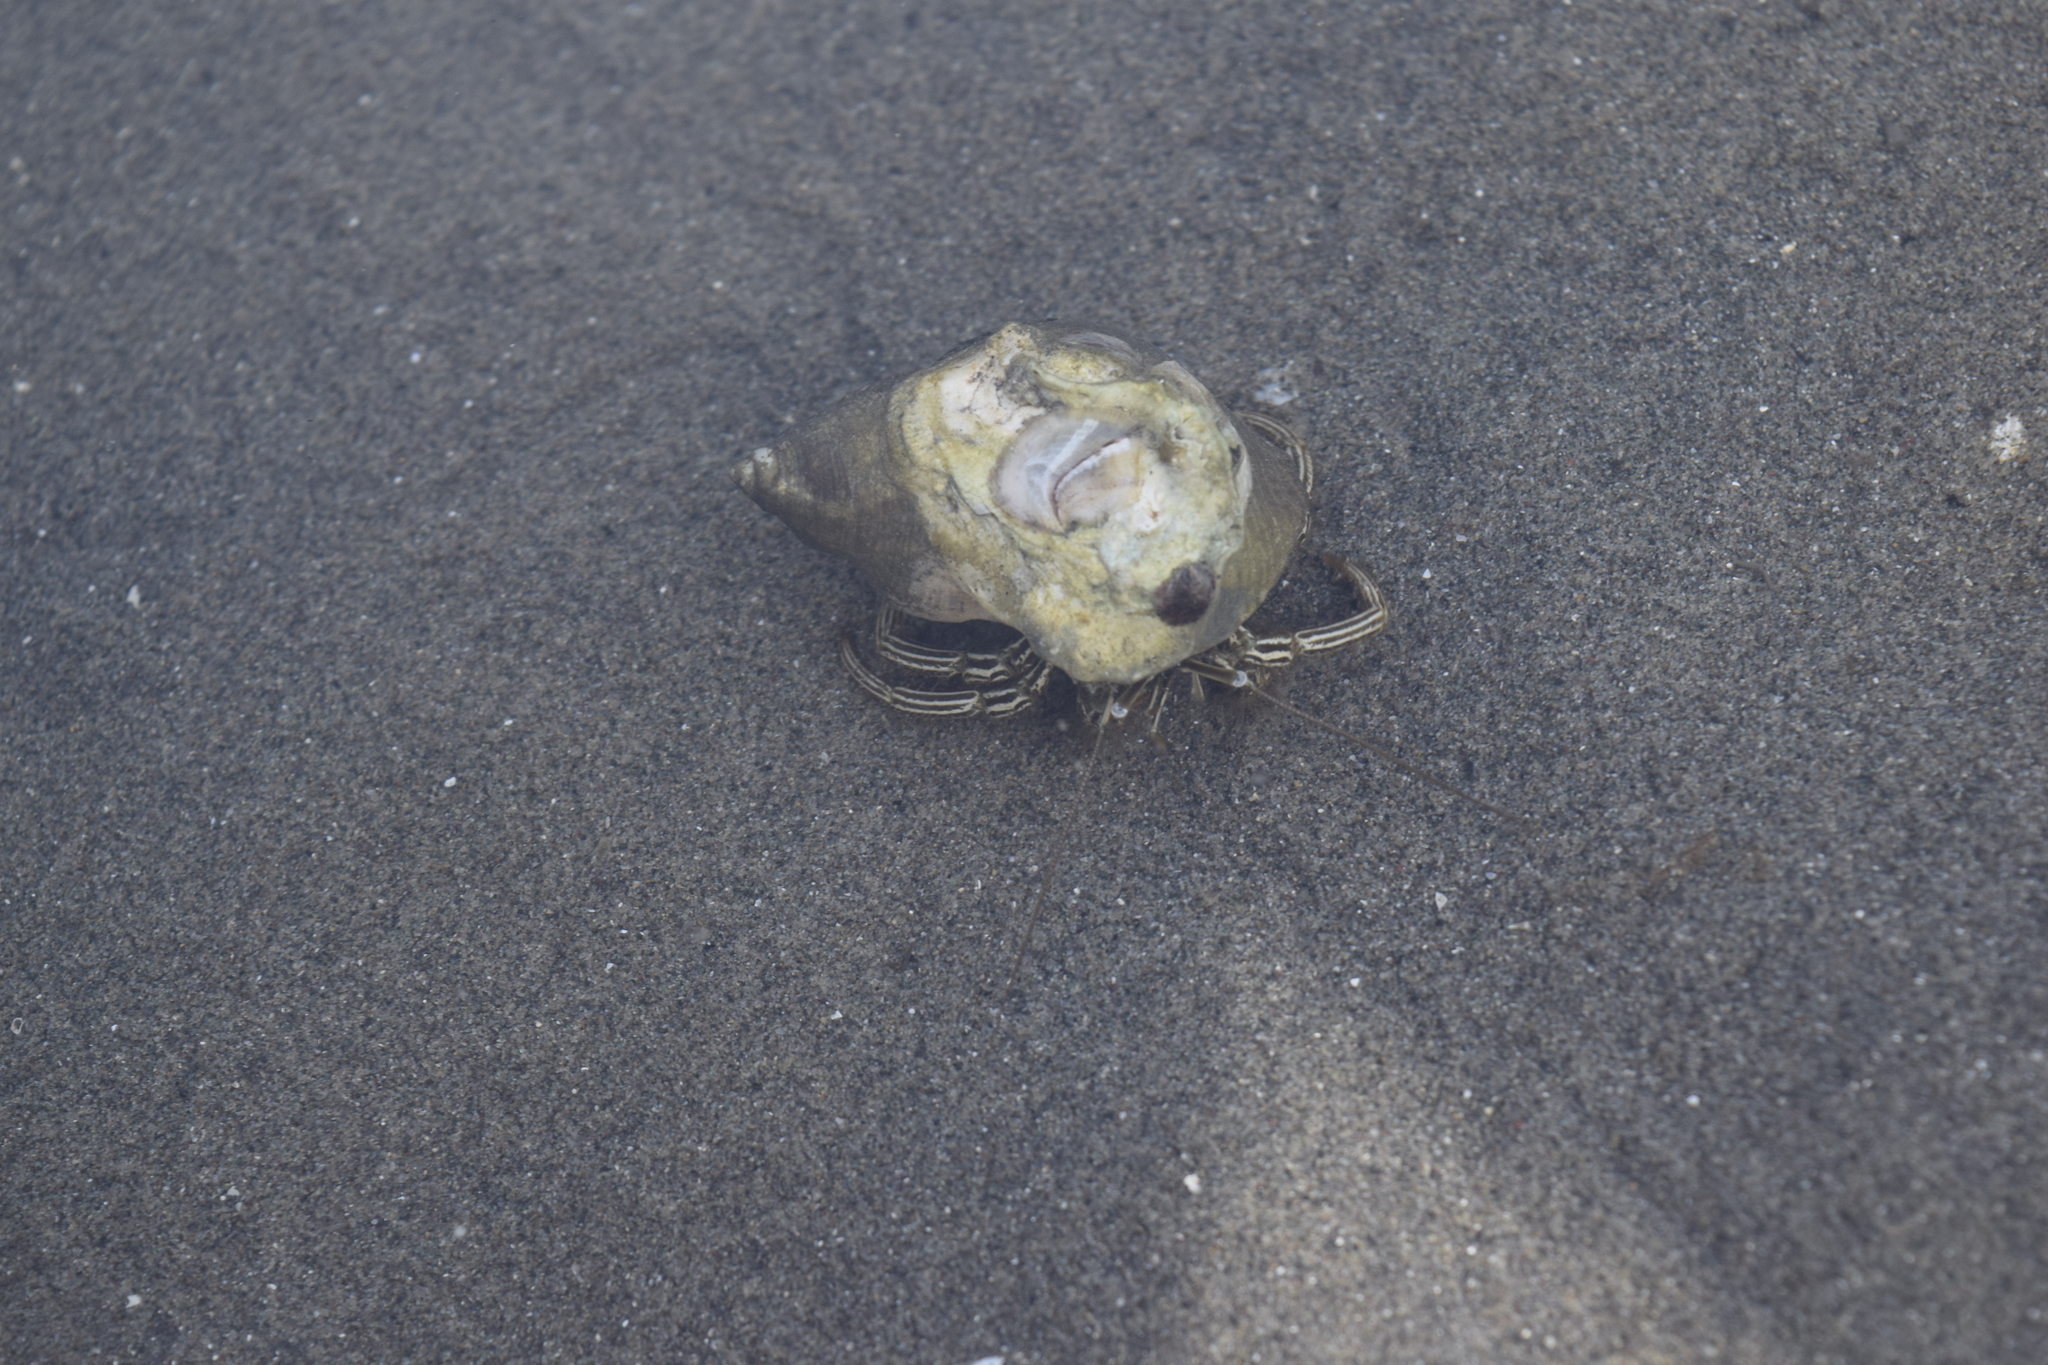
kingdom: Animalia
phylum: Arthropoda
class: Malacostraca
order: Decapoda
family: Diogenidae
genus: Clibanarius
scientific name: Clibanarius vittatus
